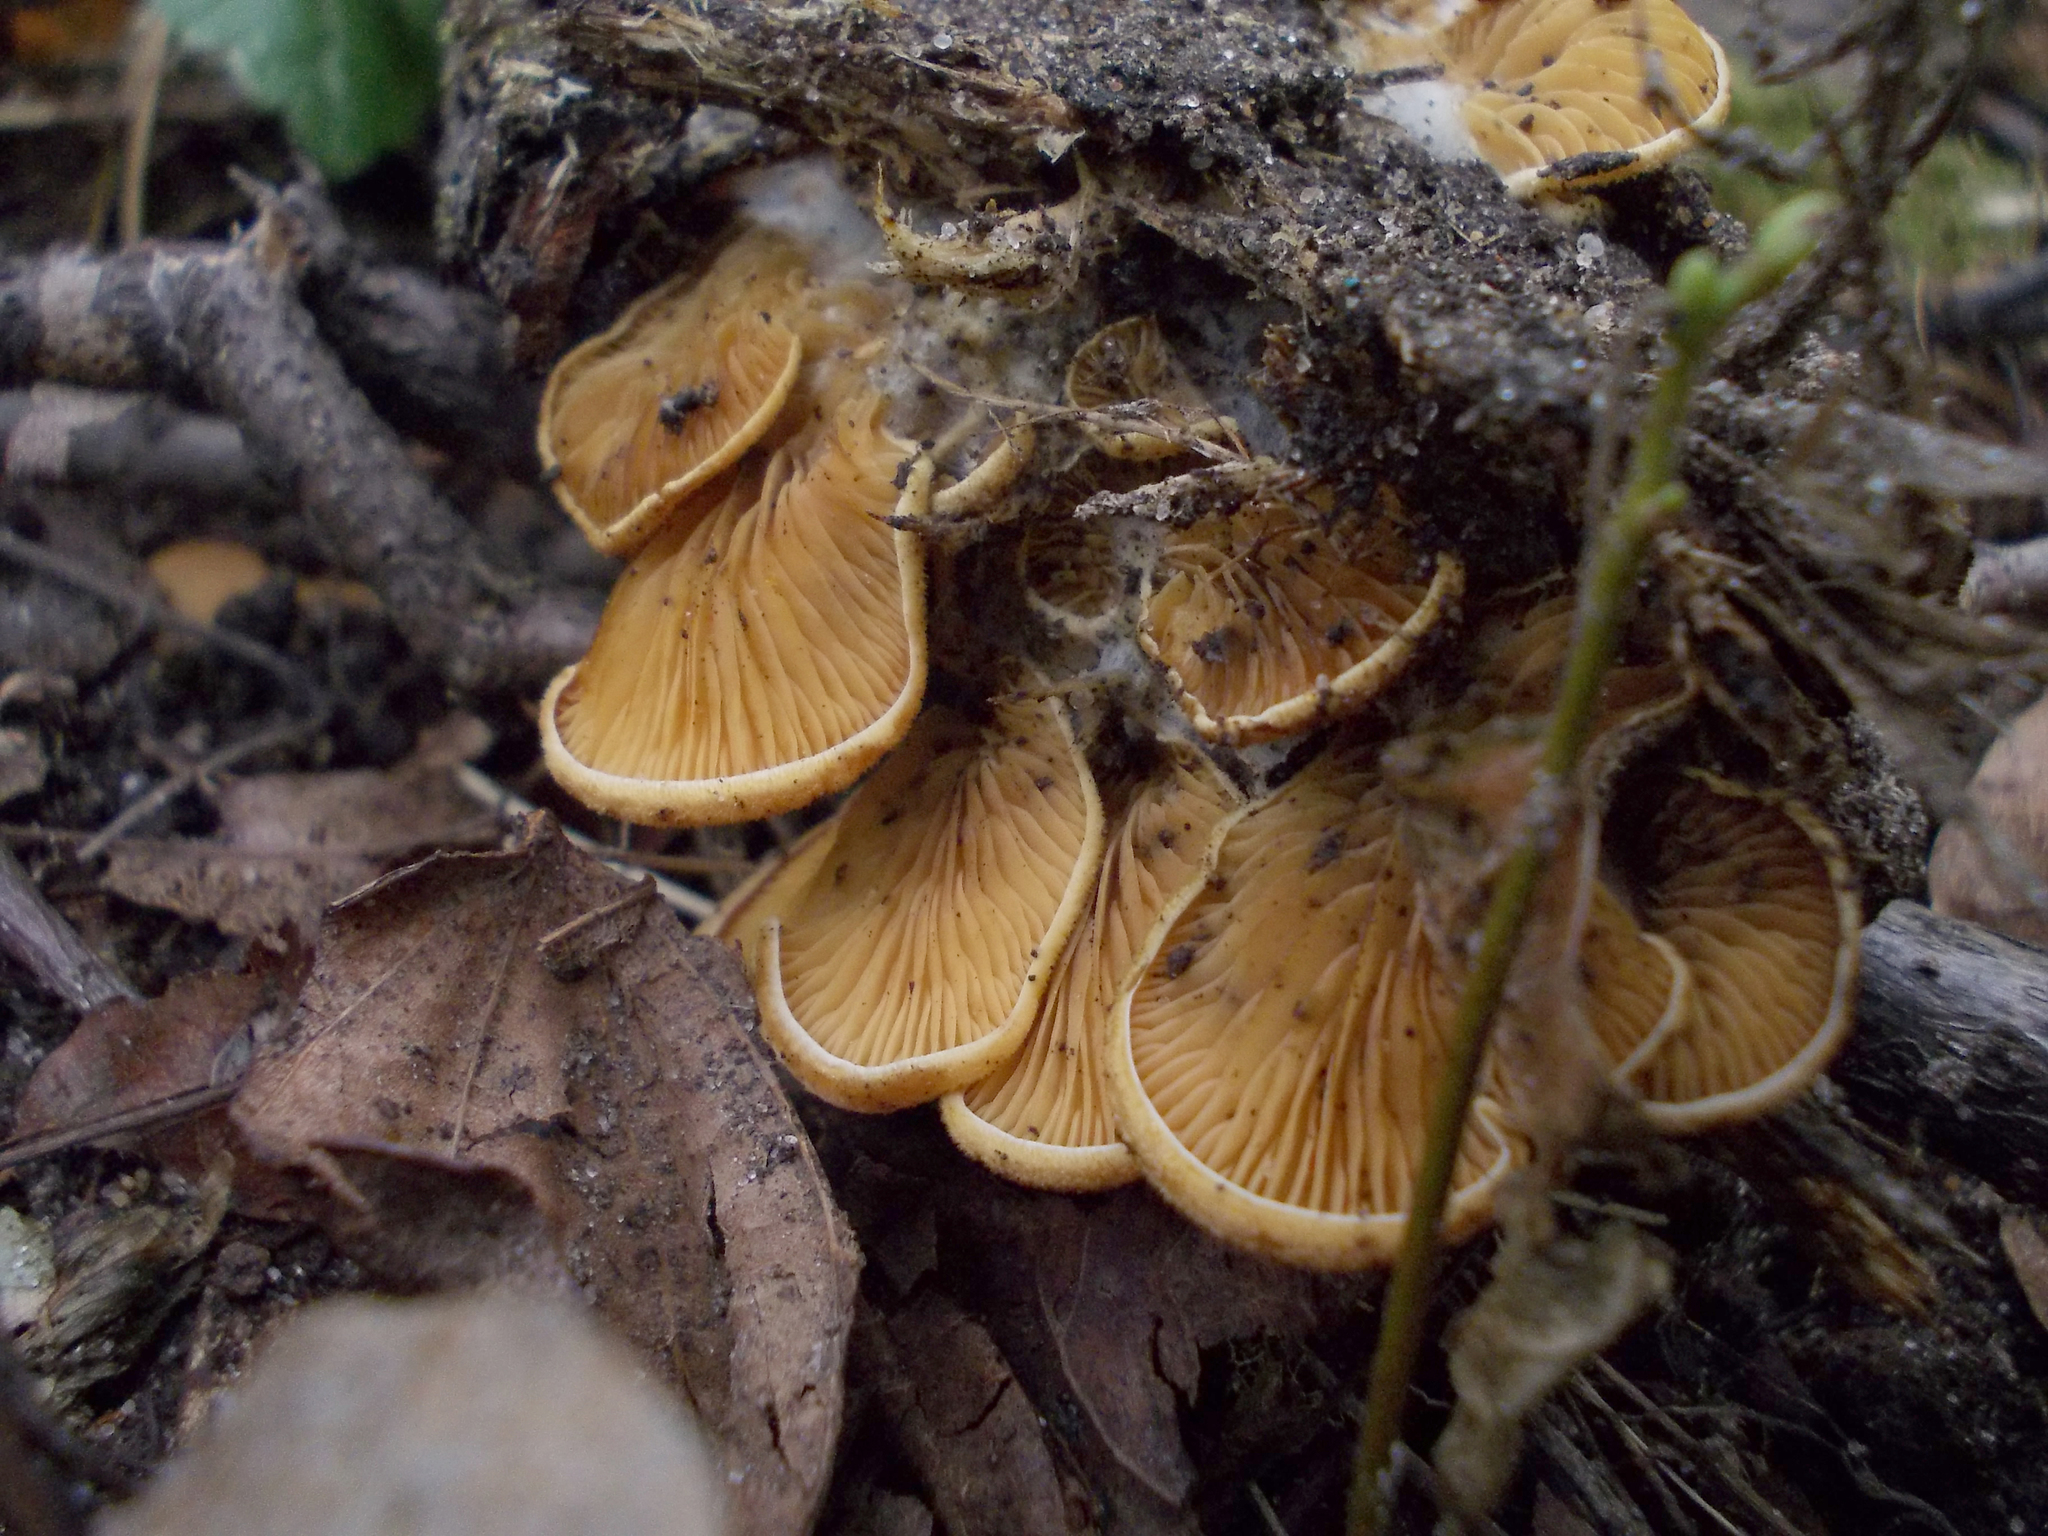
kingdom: Fungi
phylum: Basidiomycota
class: Agaricomycetes
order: Agaricales
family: Phyllotopsidaceae
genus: Phyllotopsis
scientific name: Phyllotopsis nidulans
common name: Orange mock oyster
